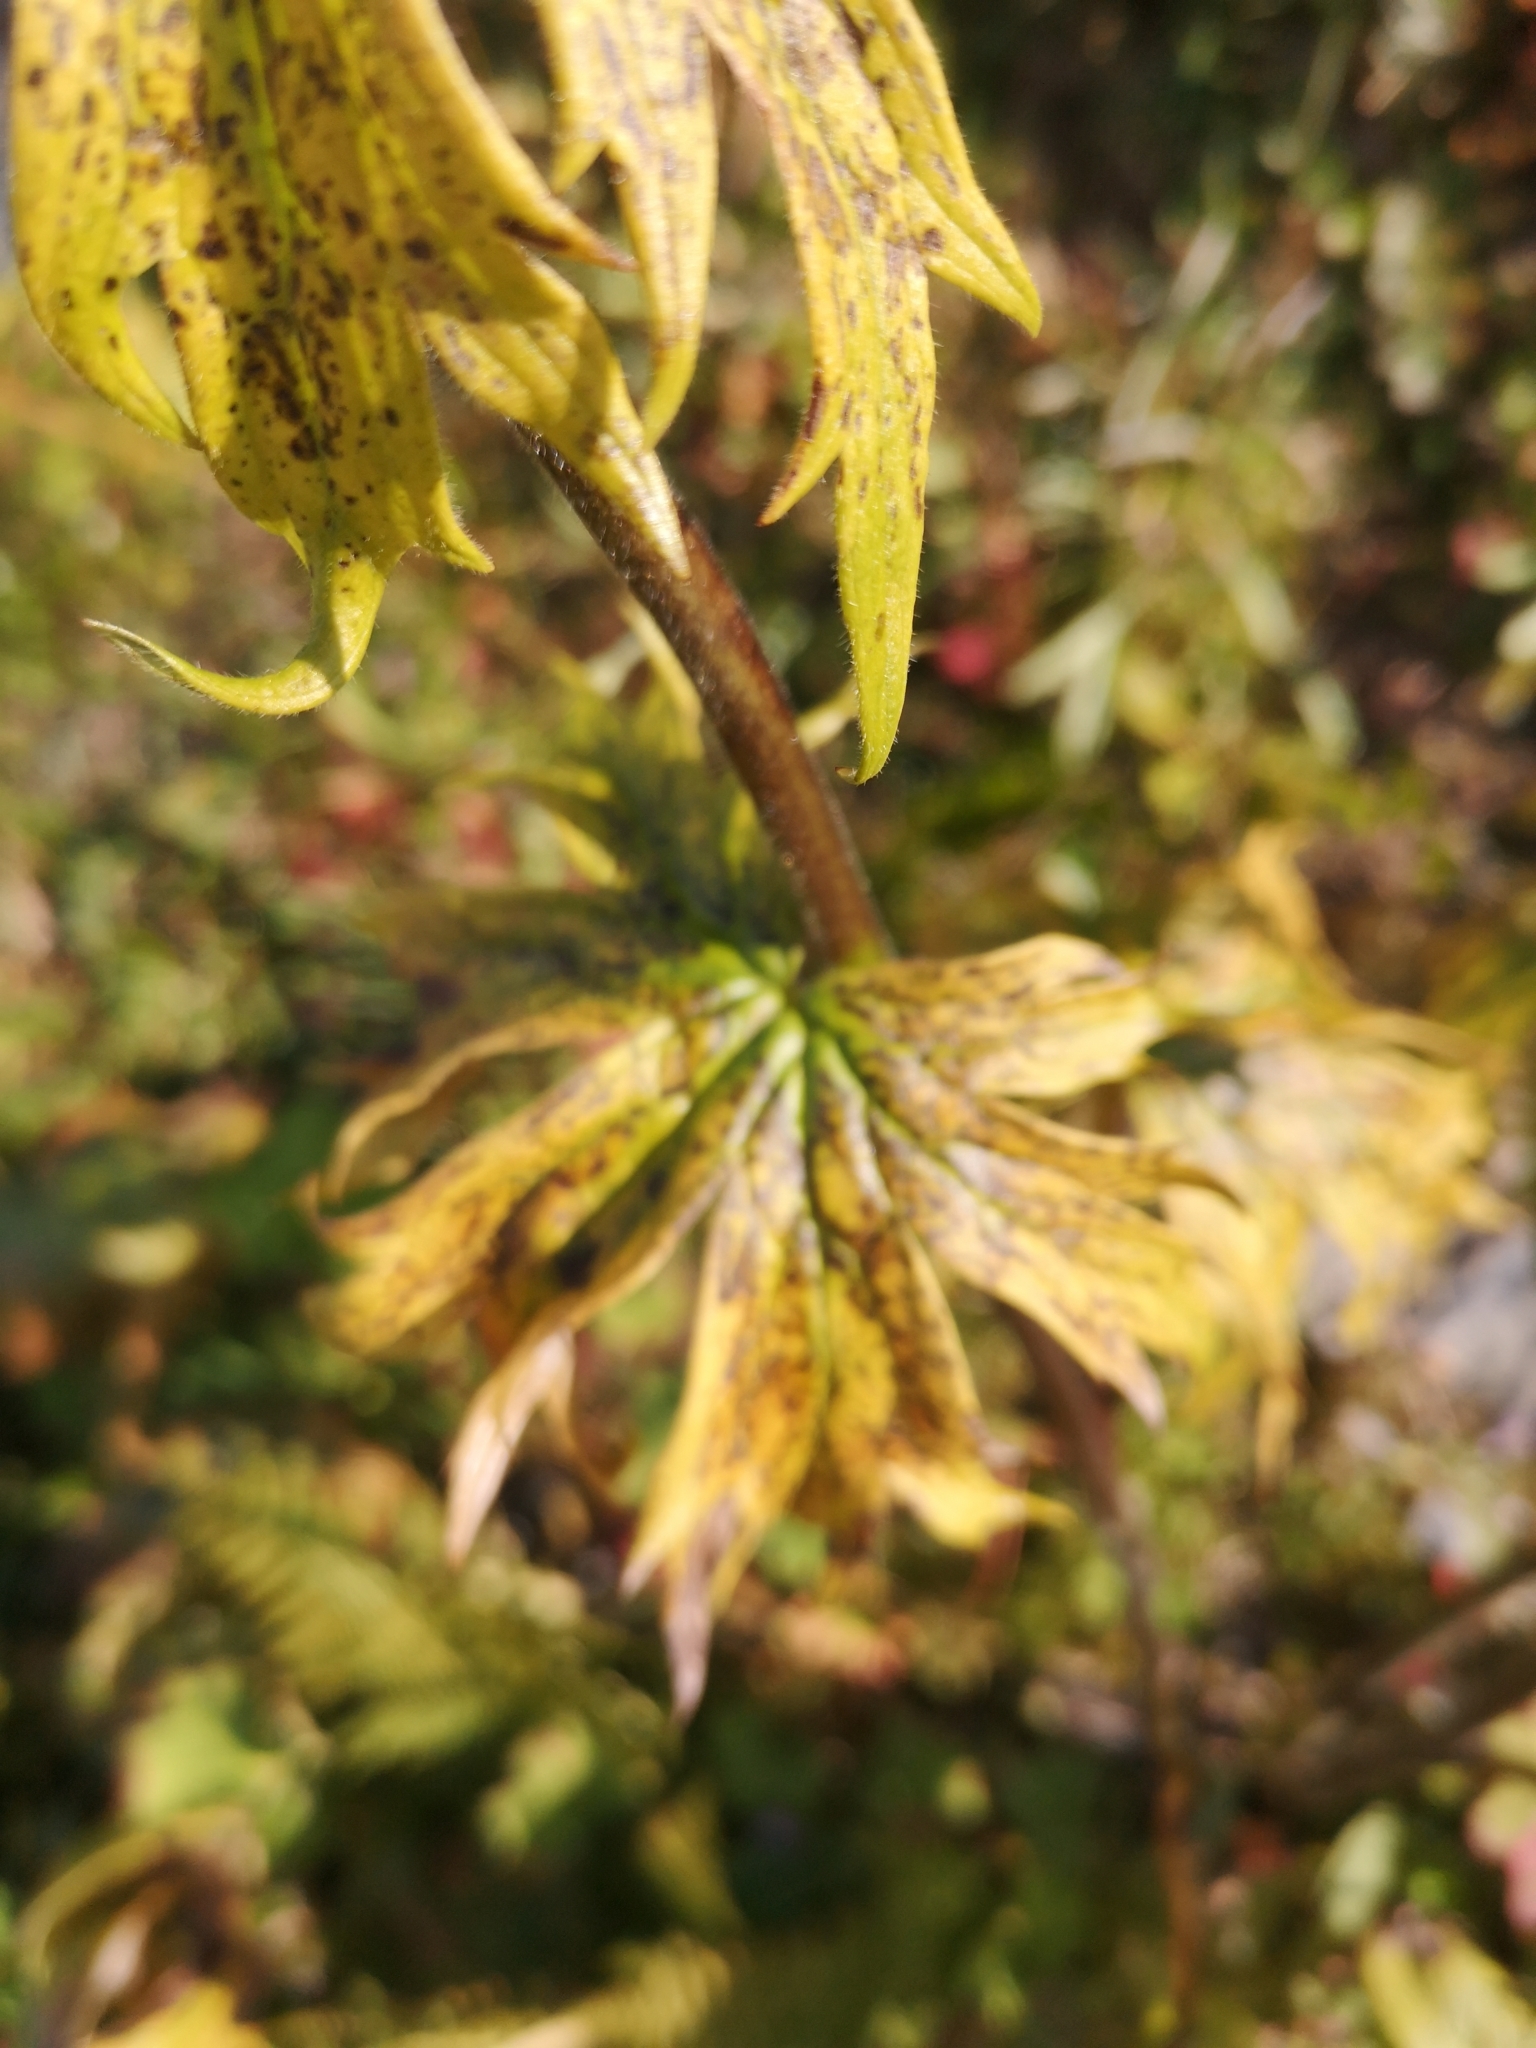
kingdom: Plantae
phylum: Tracheophyta
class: Magnoliopsida
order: Ranunculales
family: Ranunculaceae
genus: Aconitum
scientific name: Aconitum septentrionale
